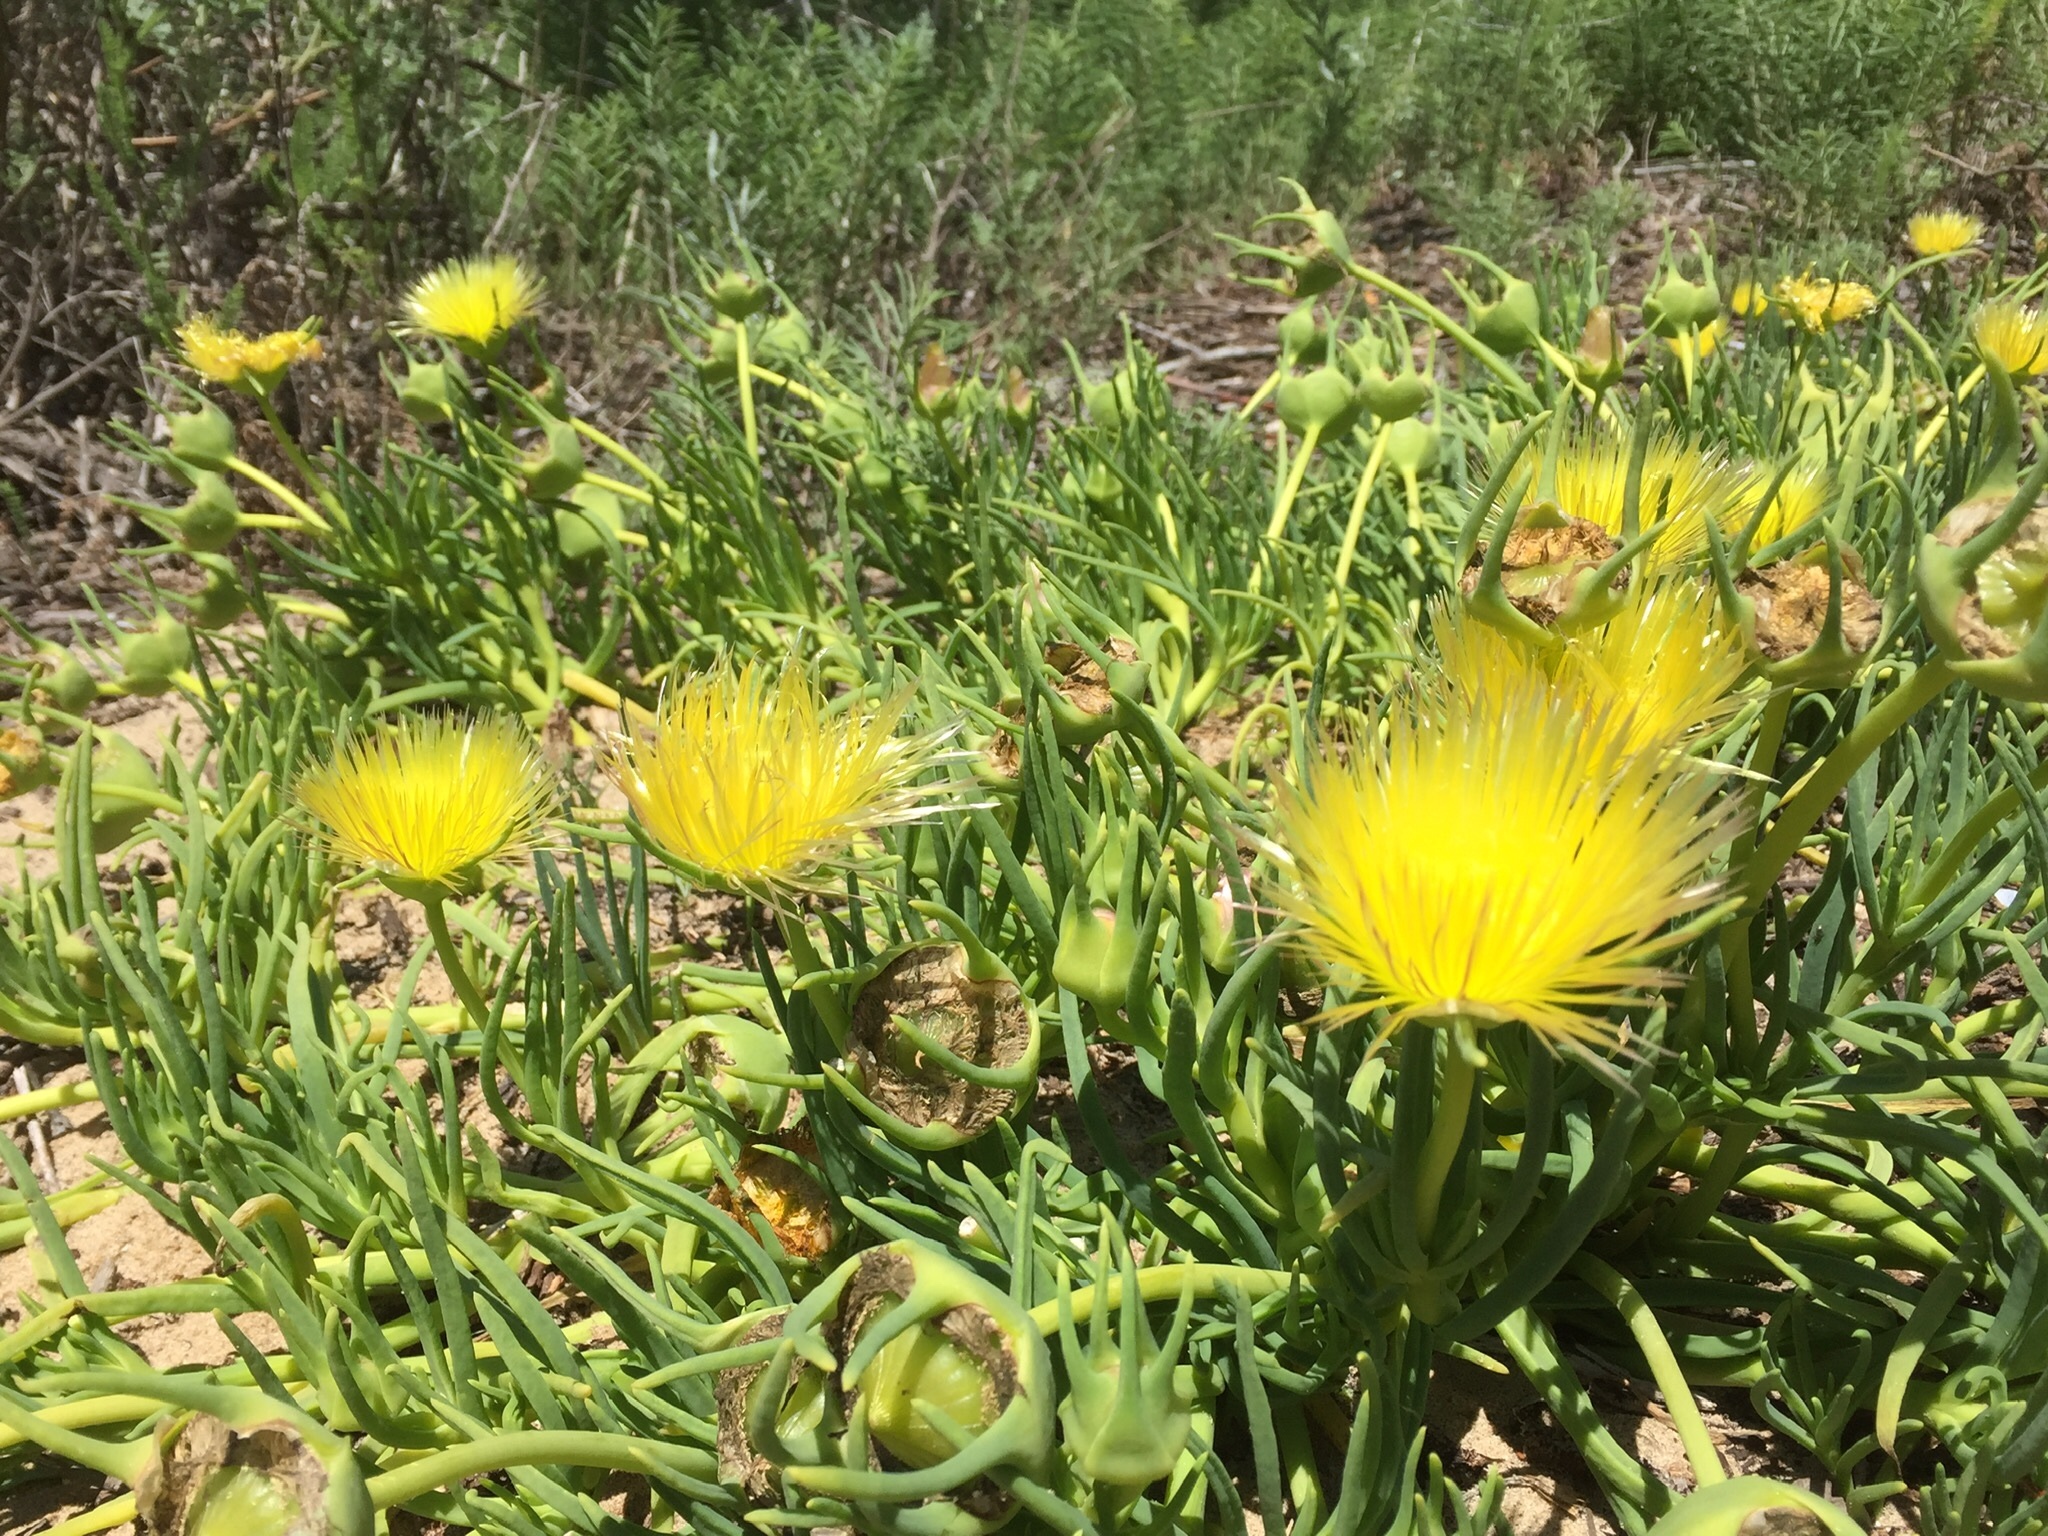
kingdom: Plantae
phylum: Tracheophyta
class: Magnoliopsida
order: Caryophyllales
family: Aizoaceae
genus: Conicosia
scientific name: Conicosia pugioniformis
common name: Narrow-leaved iceplant
